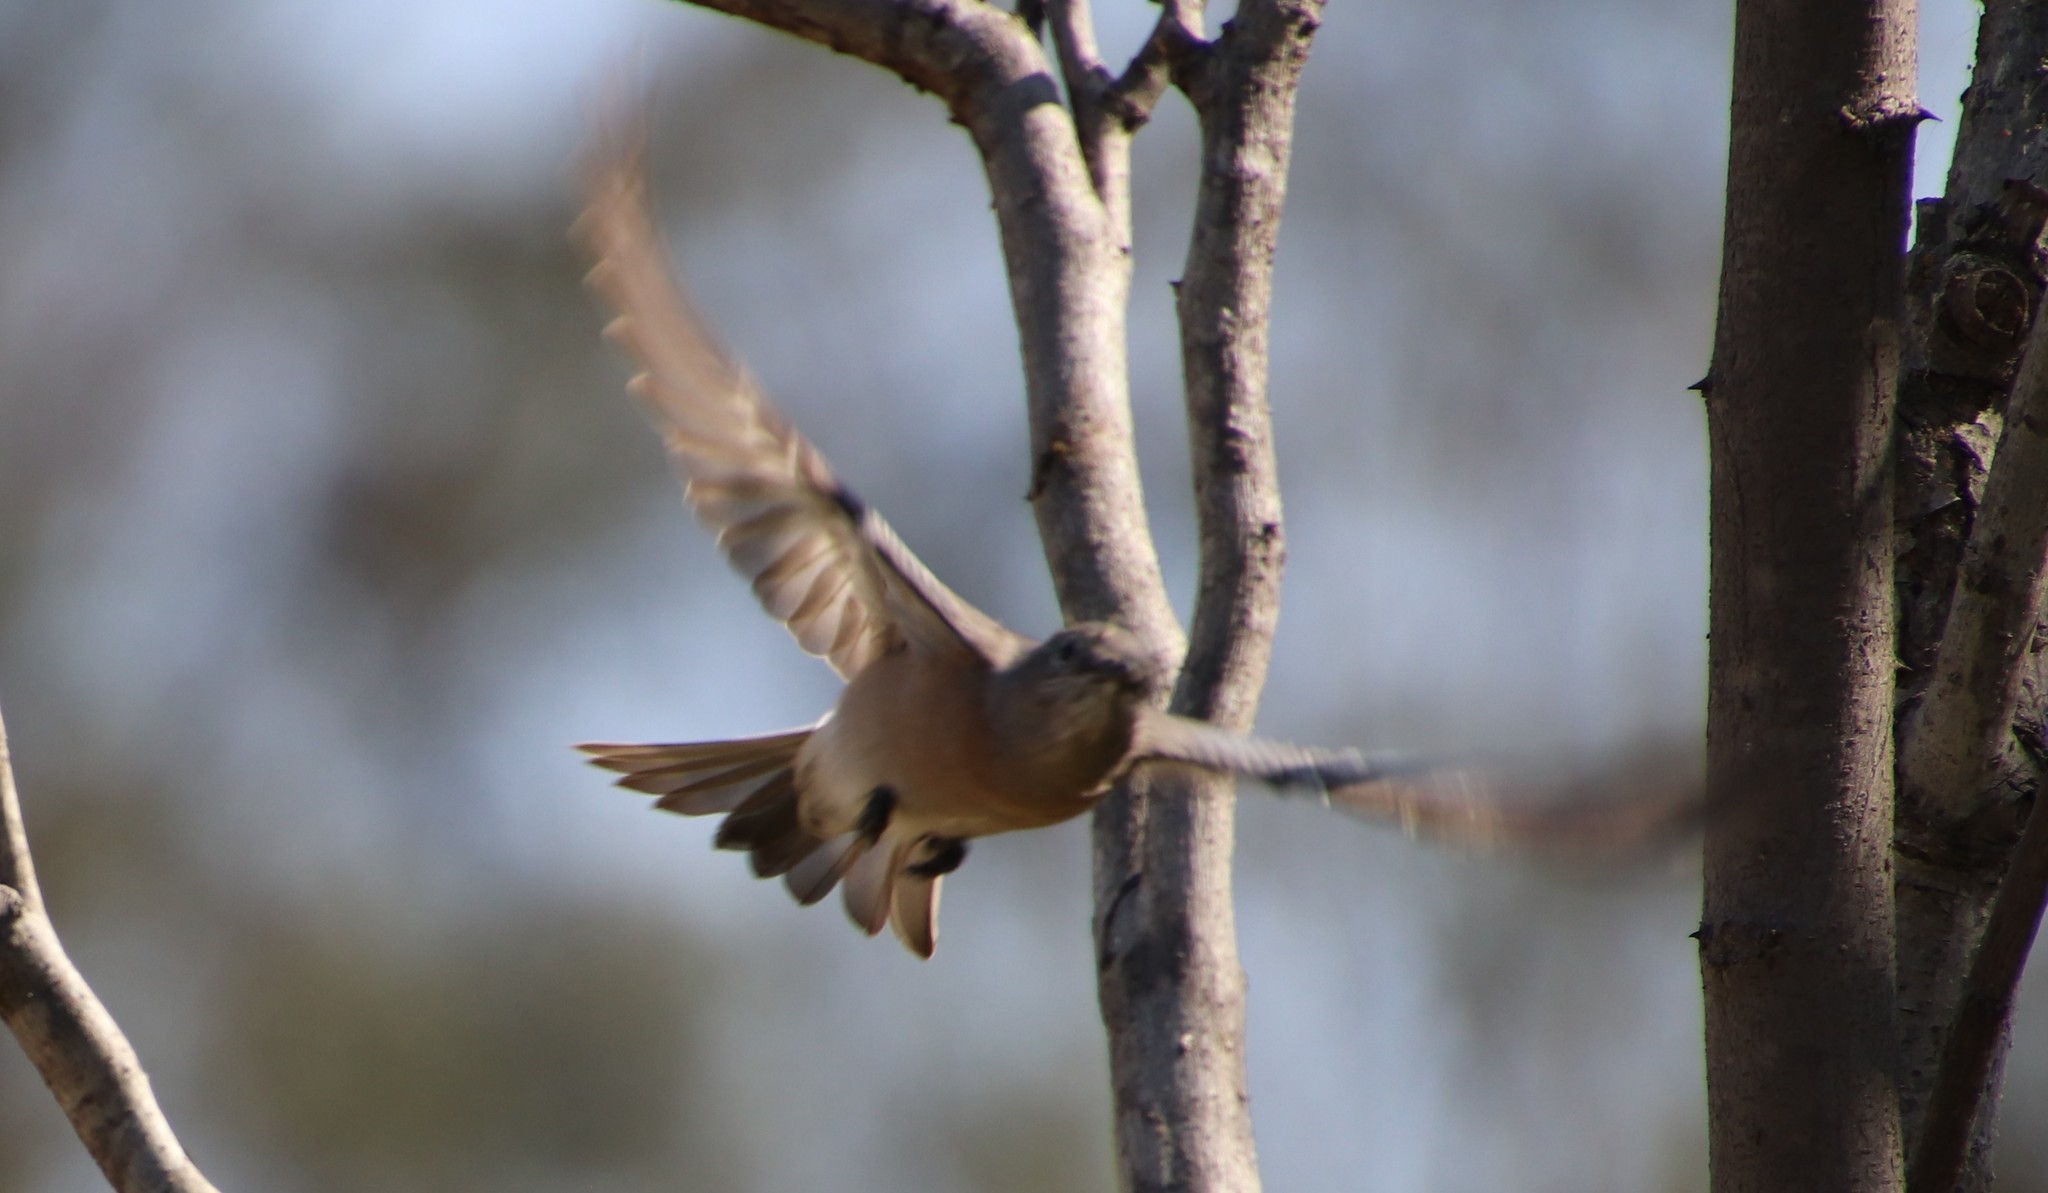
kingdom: Animalia
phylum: Chordata
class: Aves
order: Passeriformes
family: Turdidae
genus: Sialia
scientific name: Sialia mexicana
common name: Western bluebird
